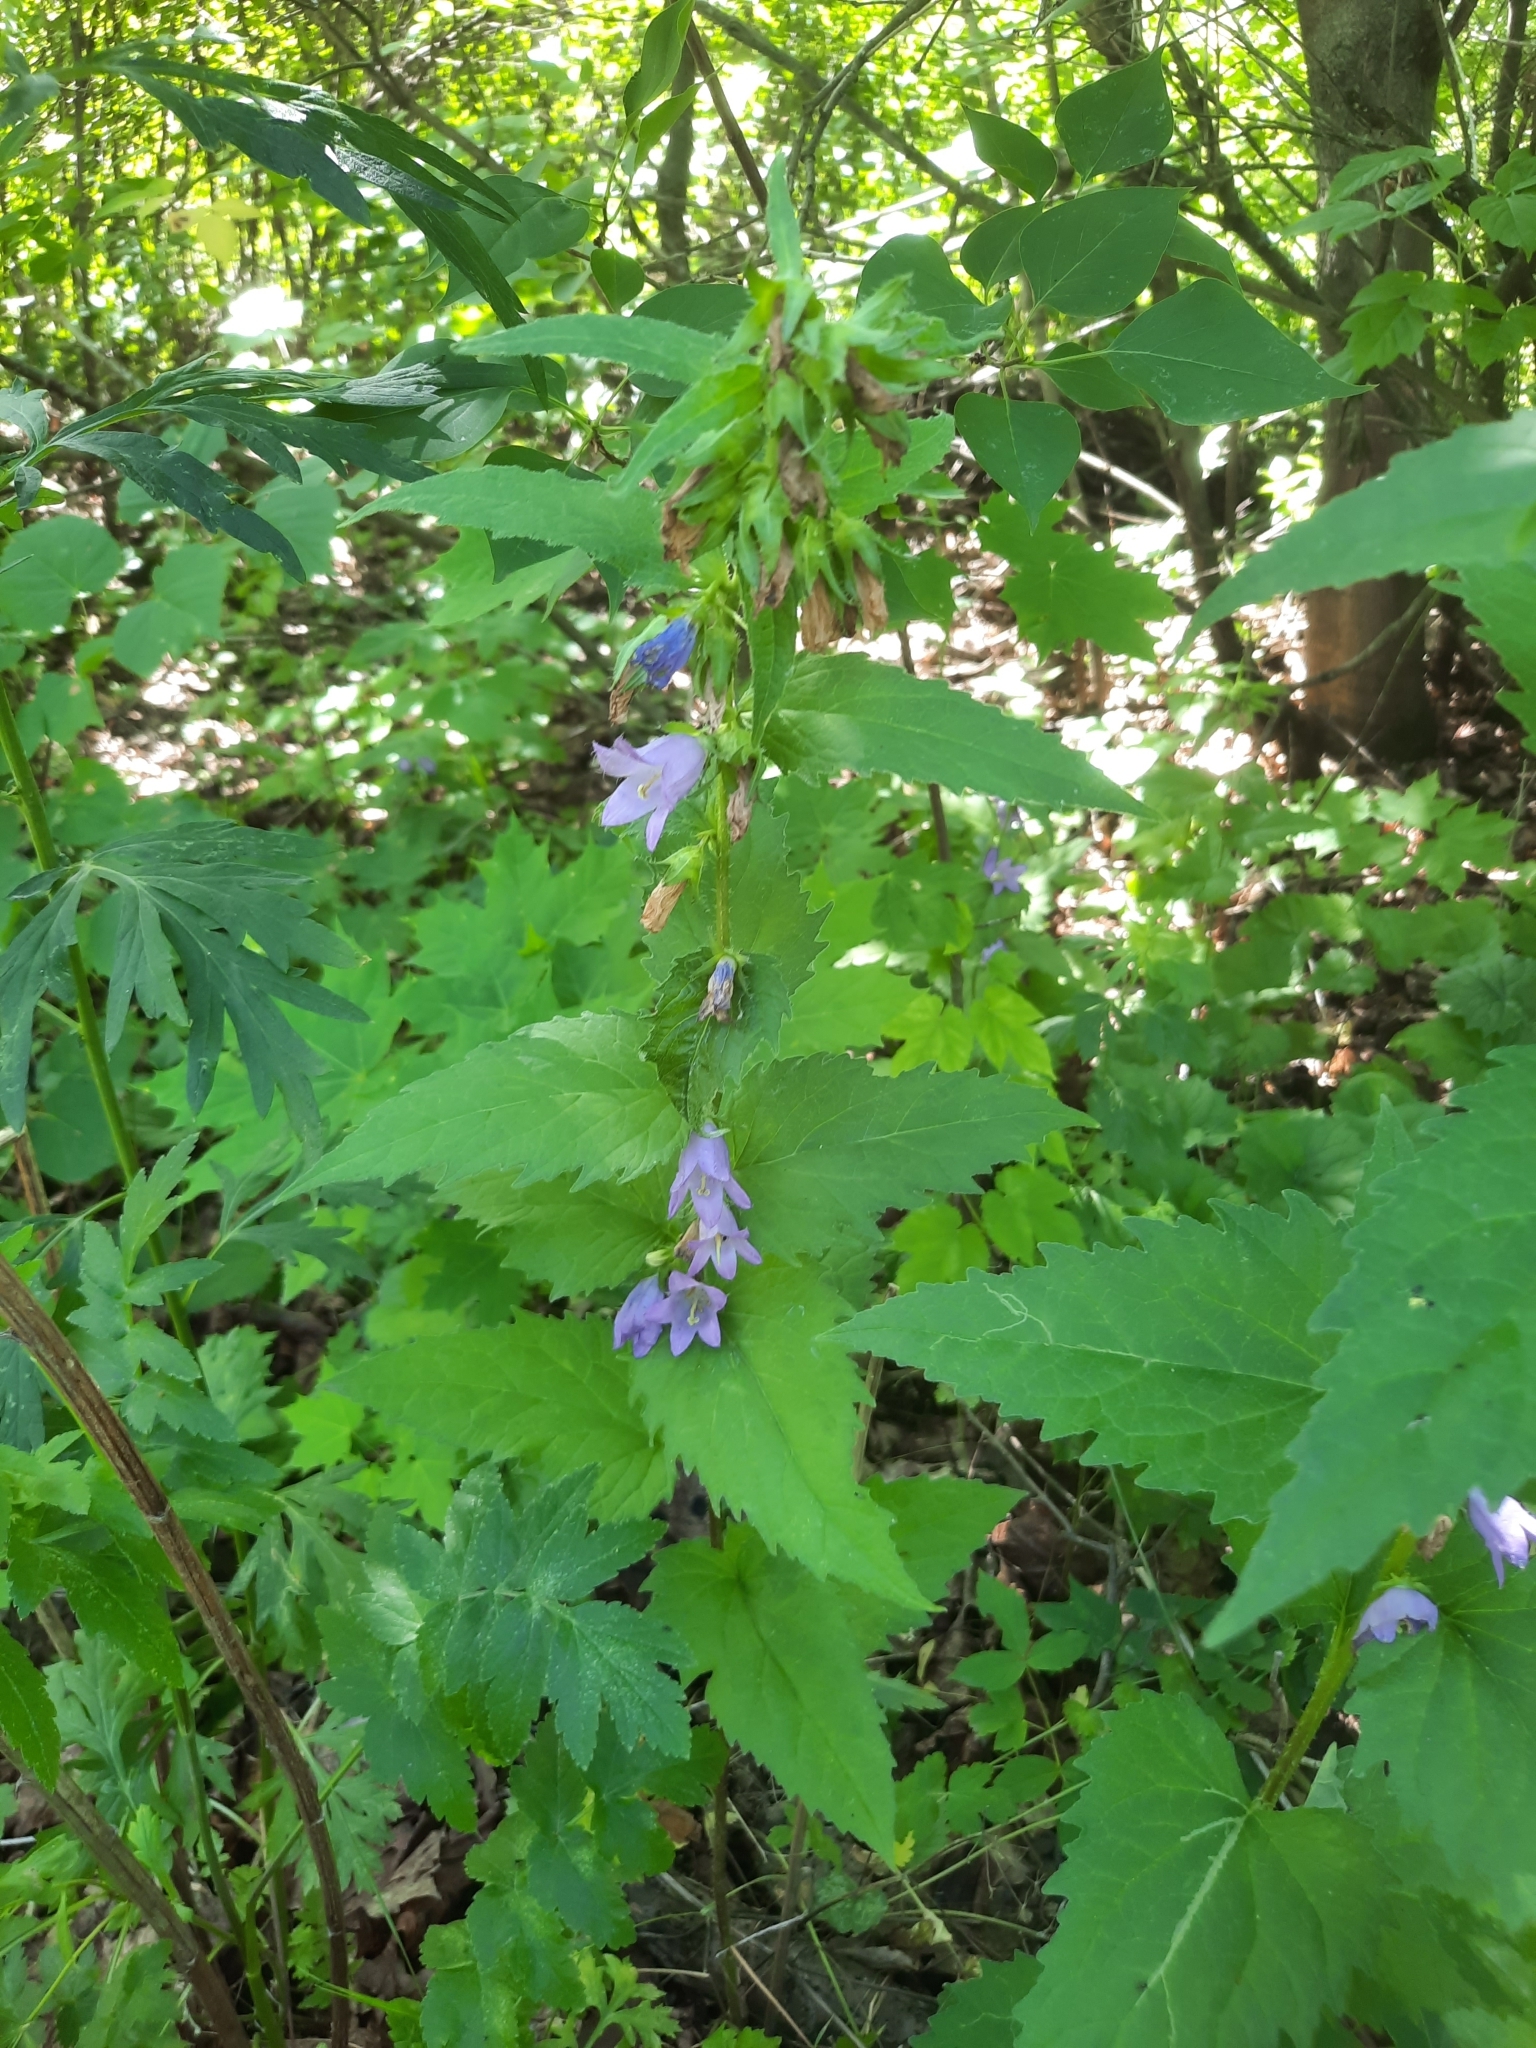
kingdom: Plantae
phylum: Tracheophyta
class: Magnoliopsida
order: Asterales
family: Campanulaceae
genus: Campanula
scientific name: Campanula trachelium
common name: Nettle-leaved bellflower
